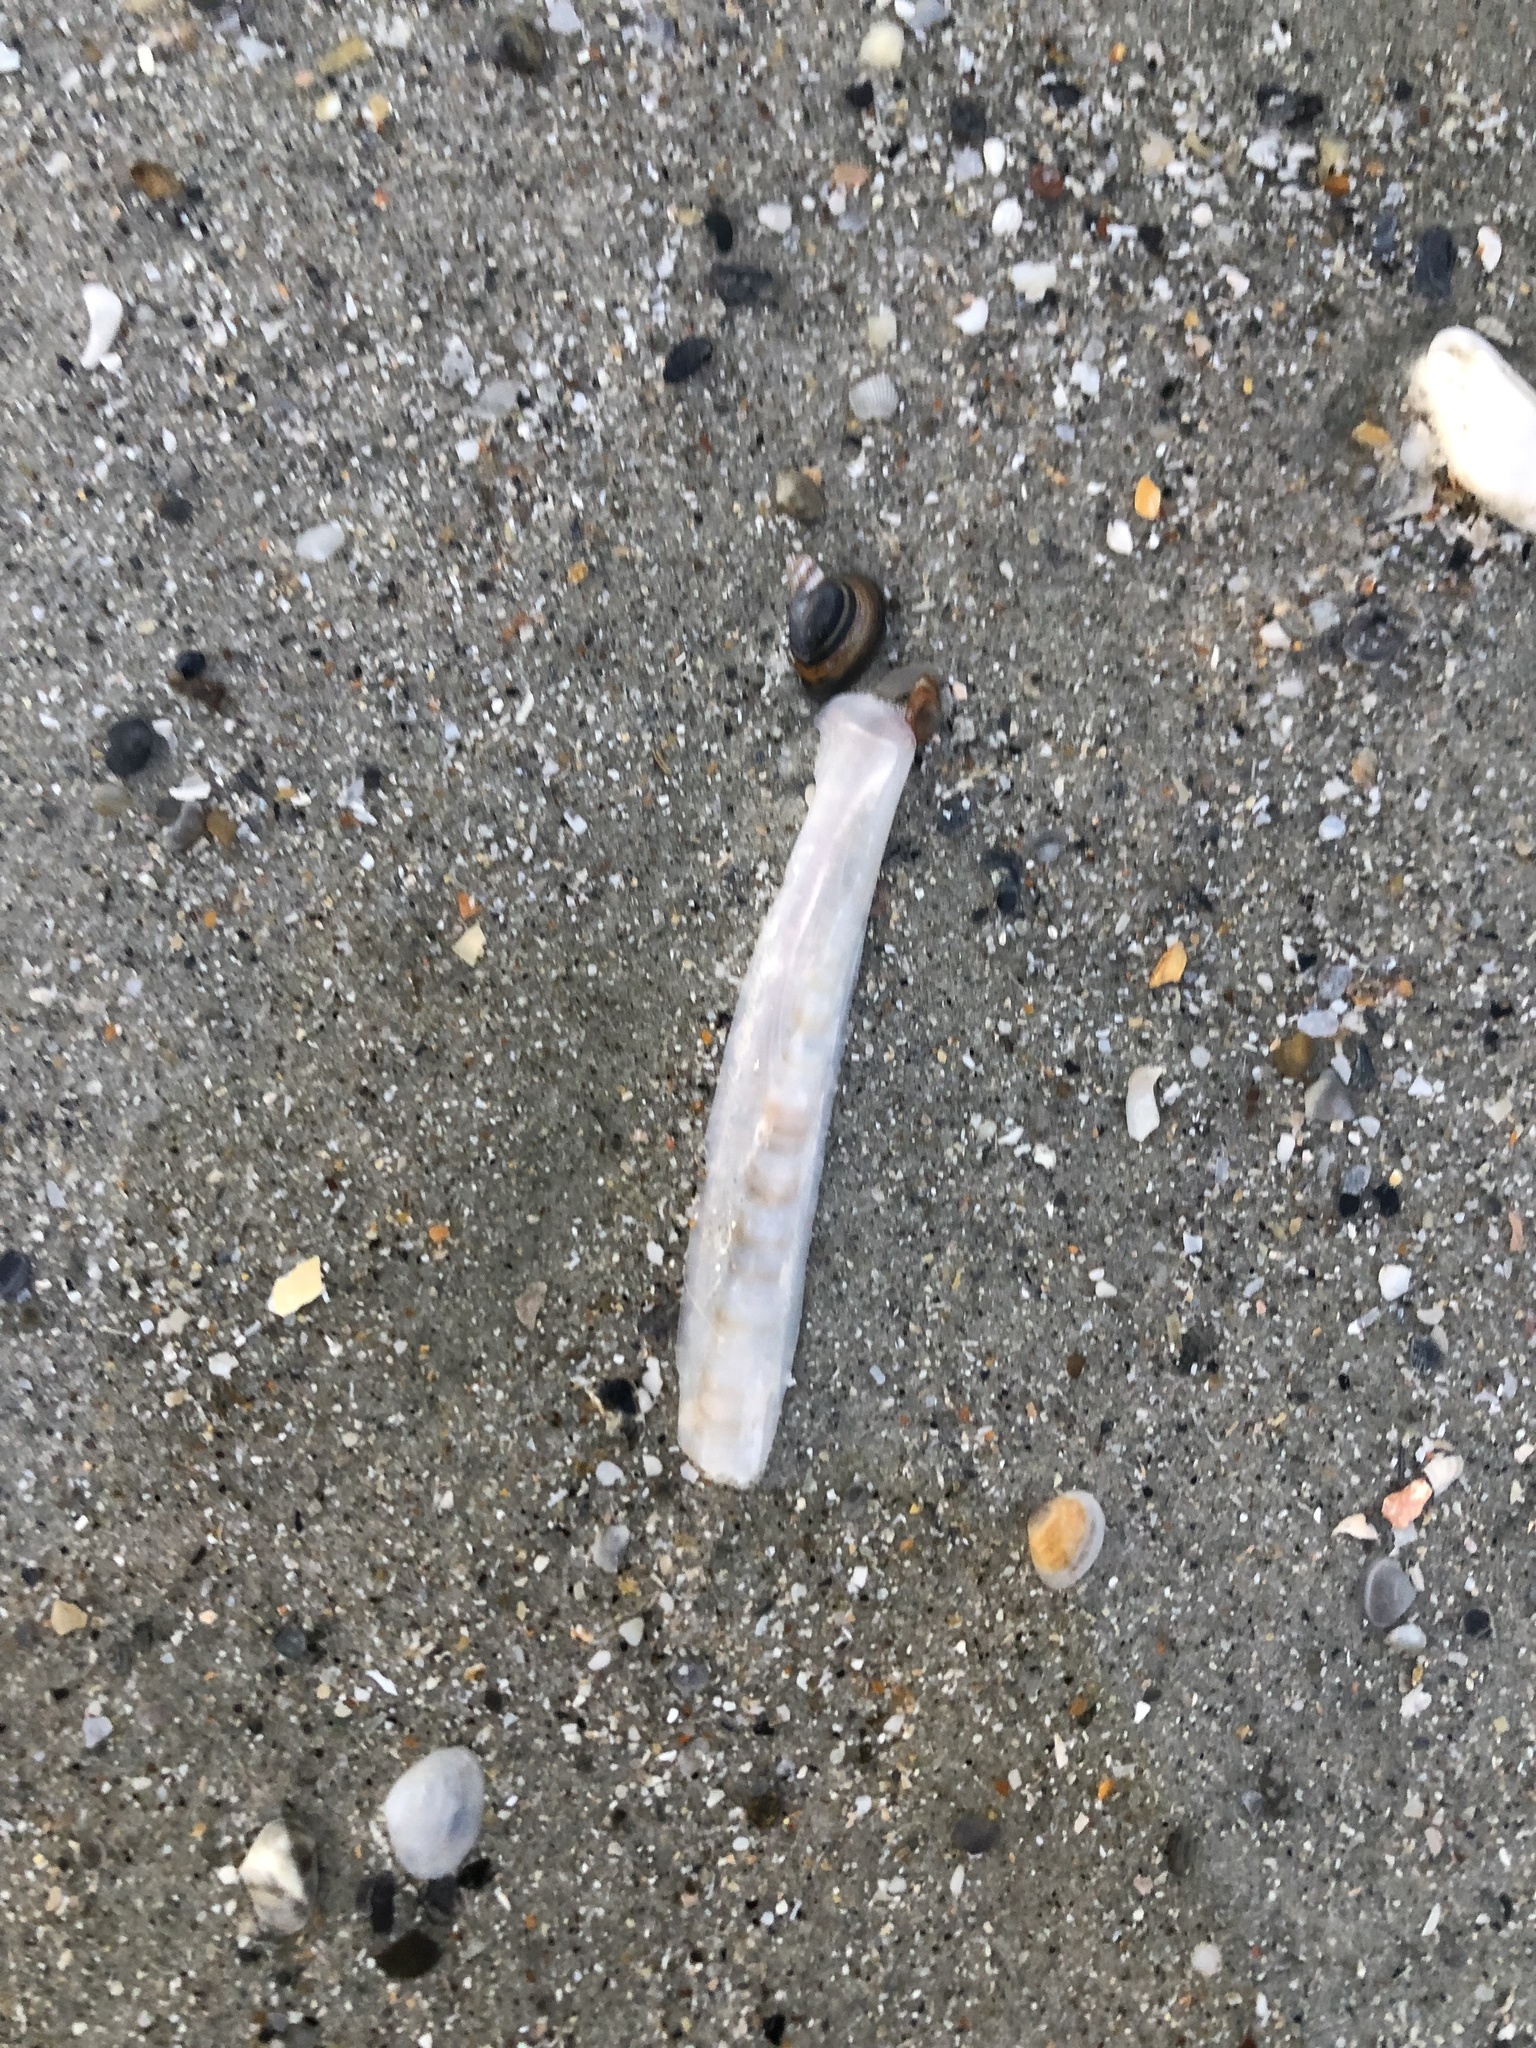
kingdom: Animalia
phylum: Mollusca
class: Bivalvia
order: Adapedonta
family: Pharidae
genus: Ensis
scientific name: Ensis leei
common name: American jack knife clam
